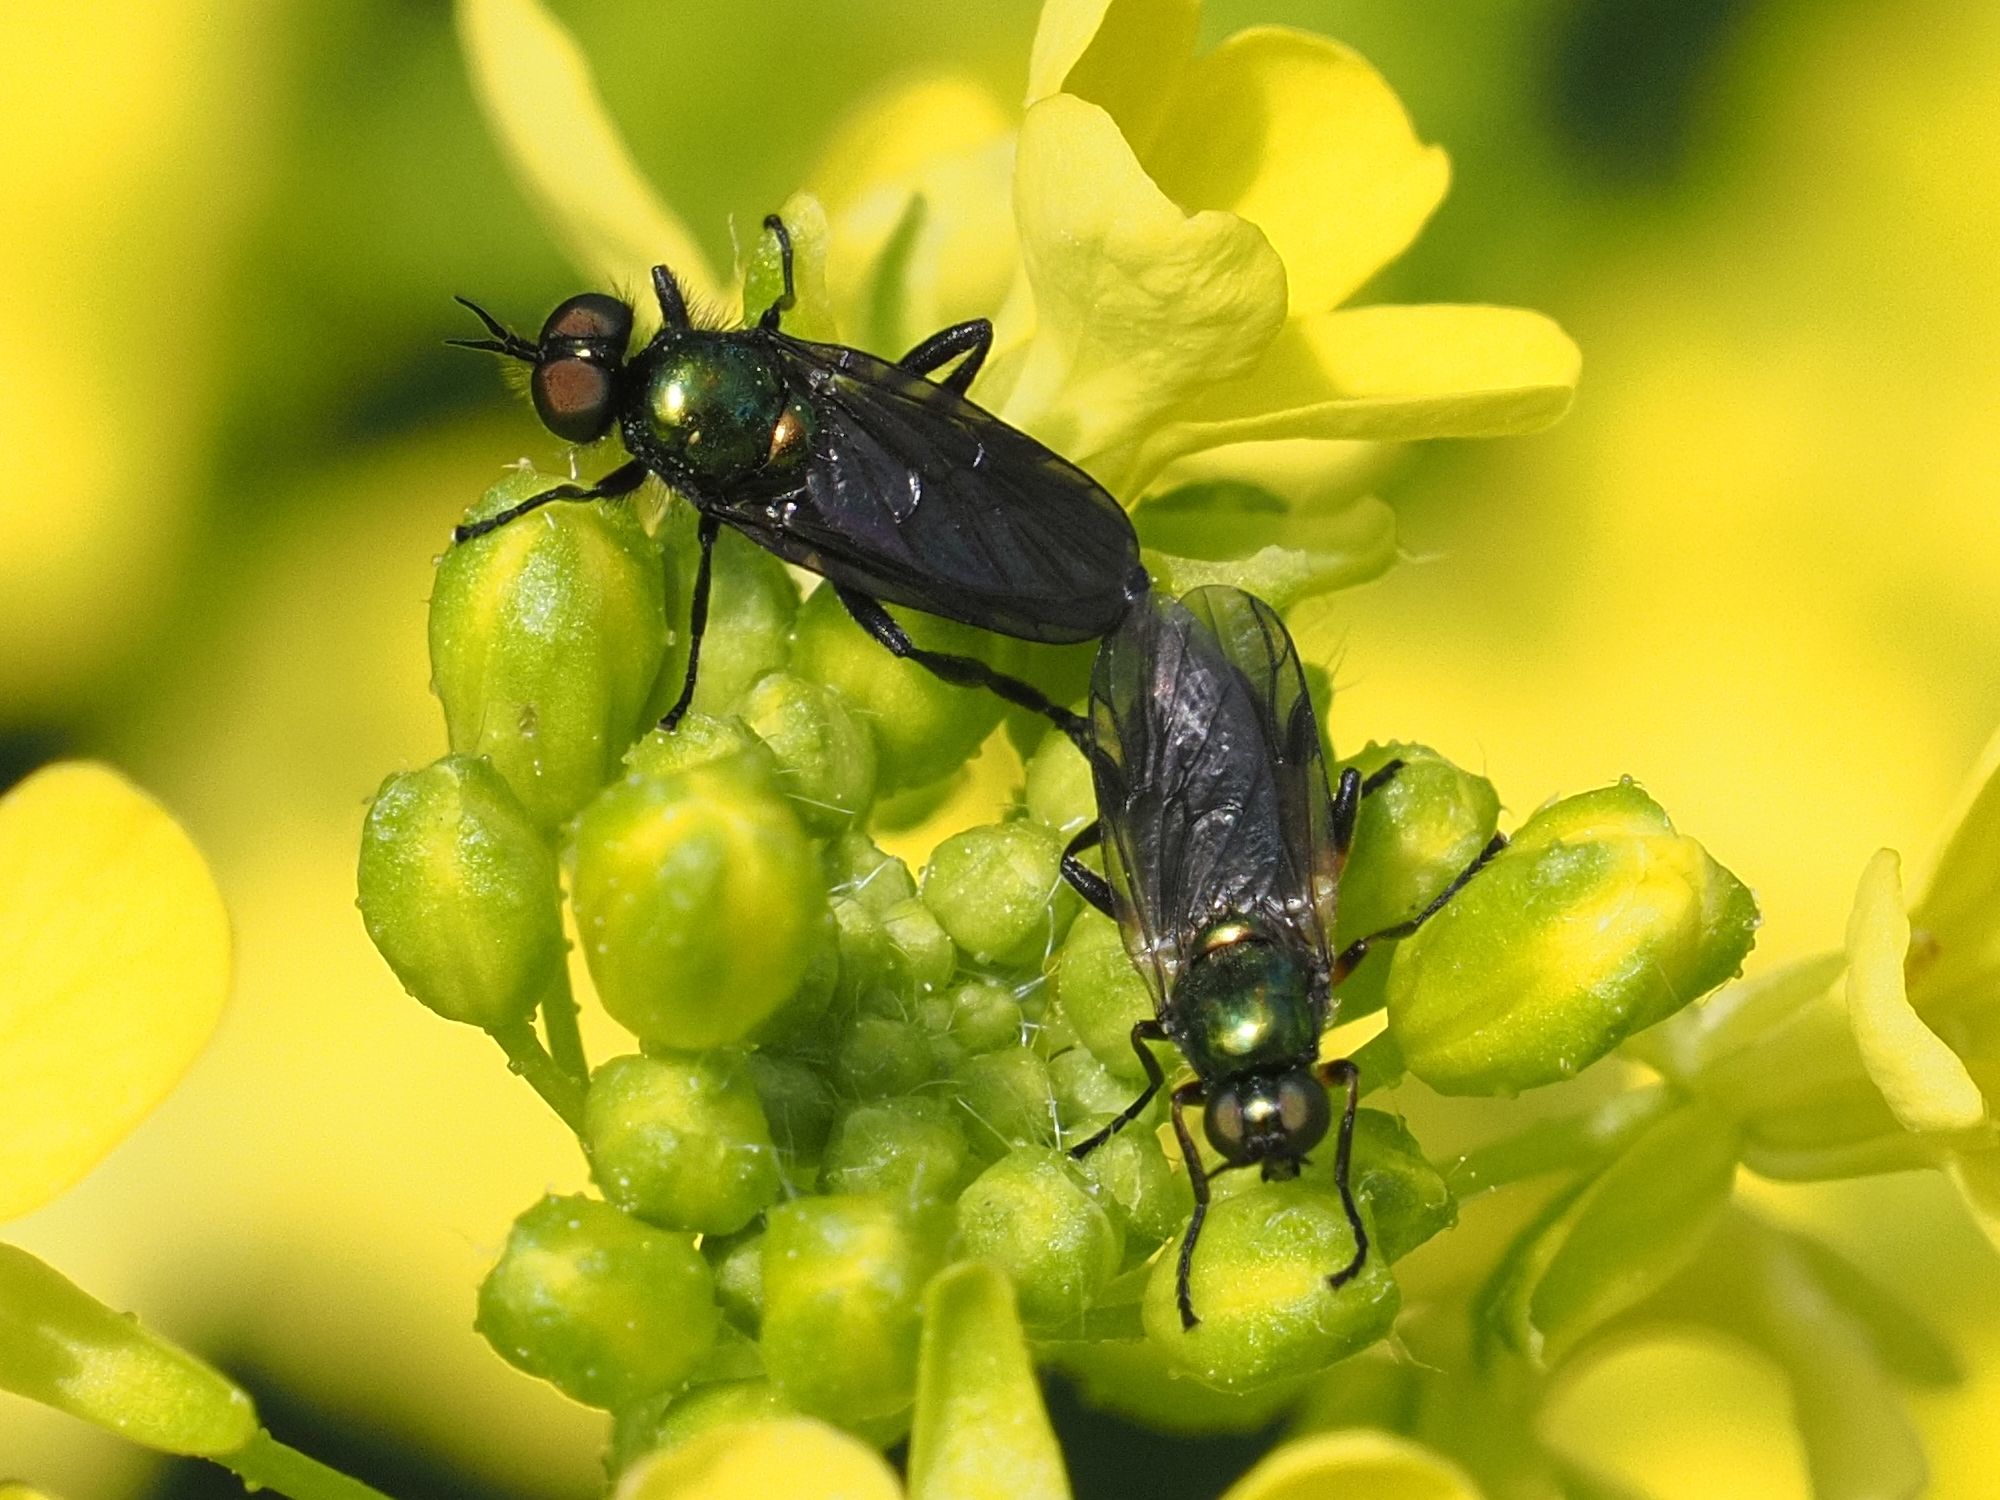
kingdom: Animalia
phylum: Arthropoda
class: Insecta
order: Diptera
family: Stratiomyidae
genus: Actina
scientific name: Actina chalybea
